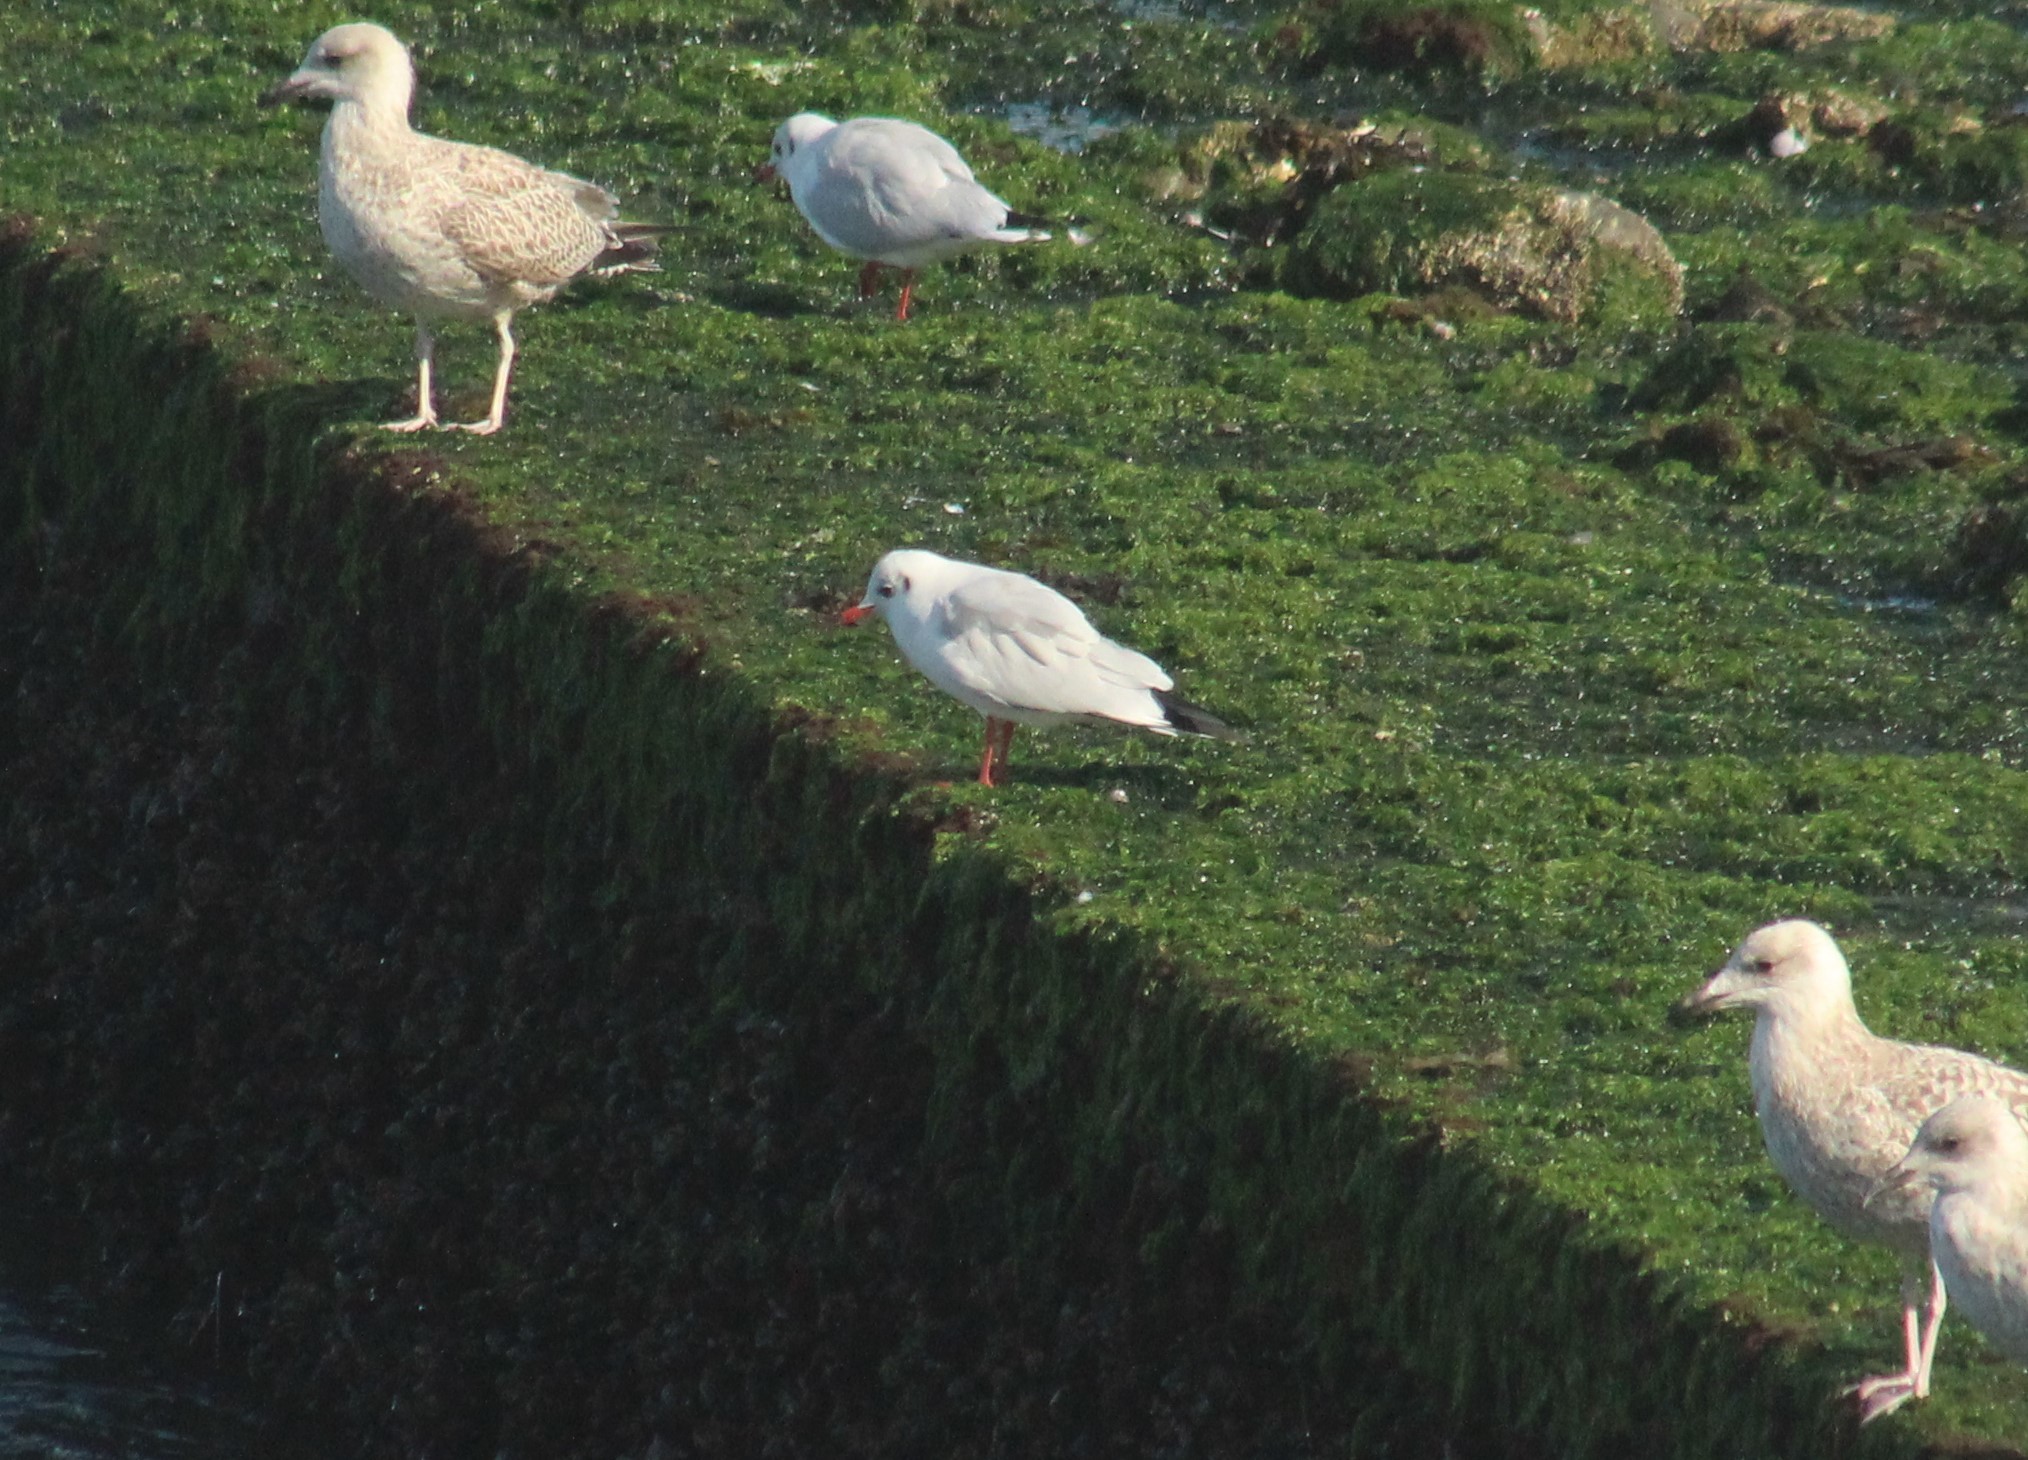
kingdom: Animalia
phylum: Chordata
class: Aves
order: Charadriiformes
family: Laridae
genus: Chroicocephalus
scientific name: Chroicocephalus ridibundus
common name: Black-headed gull
